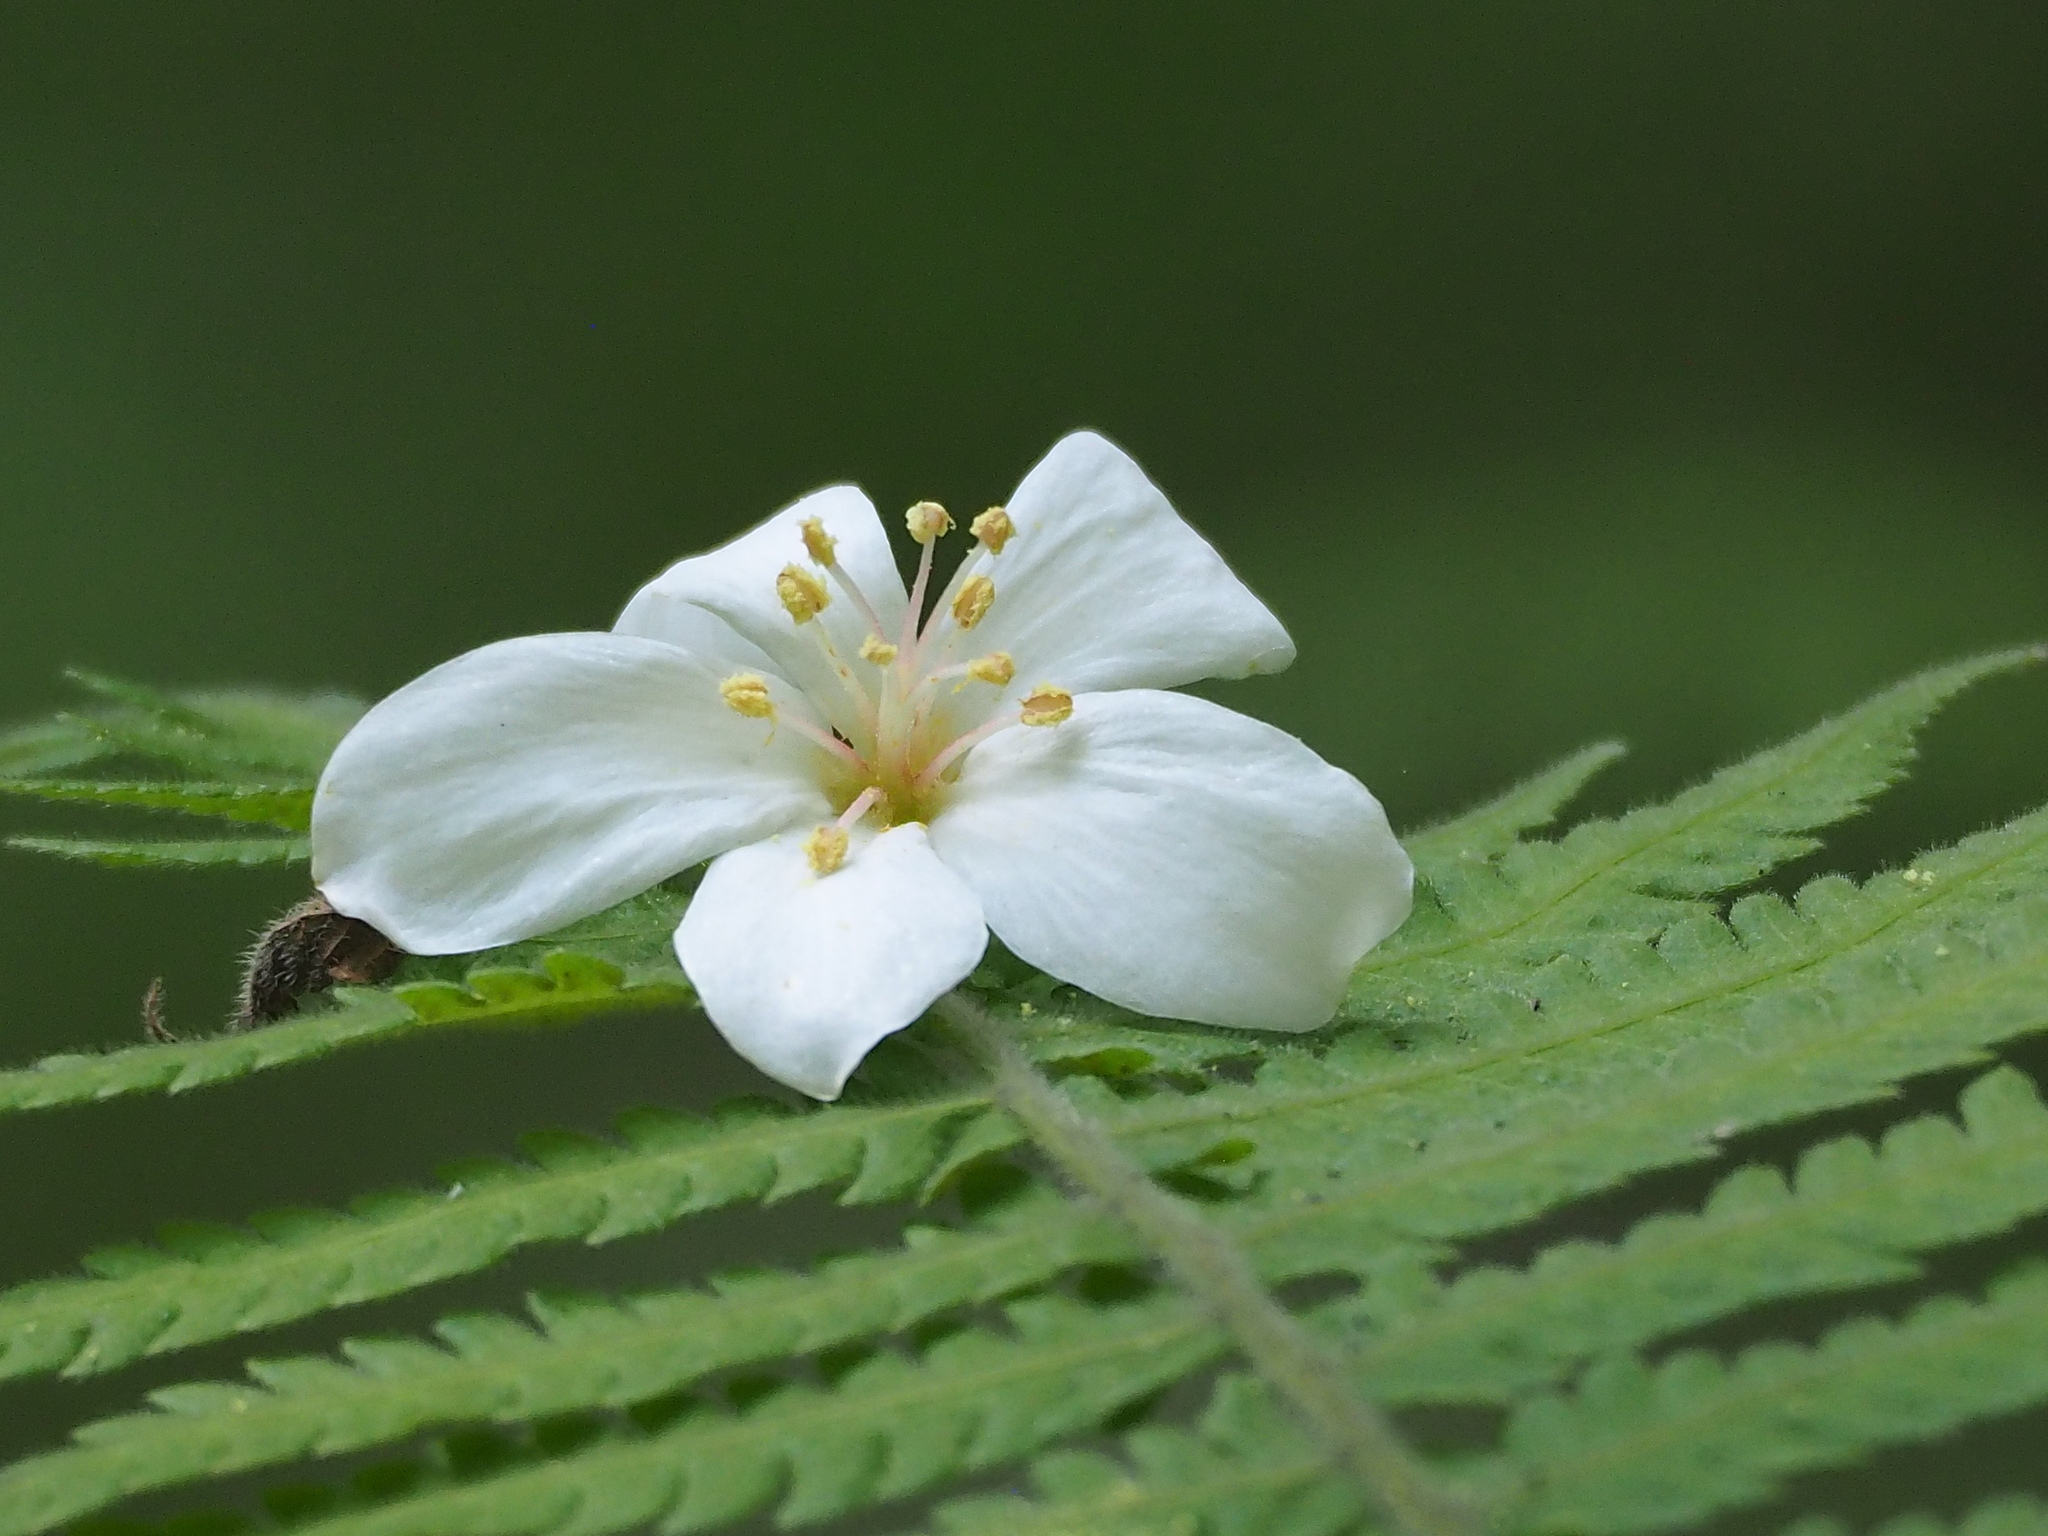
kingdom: Plantae
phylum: Tracheophyta
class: Magnoliopsida
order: Malpighiales
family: Euphorbiaceae
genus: Vernicia
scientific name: Vernicia montana
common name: Mu oil tree
